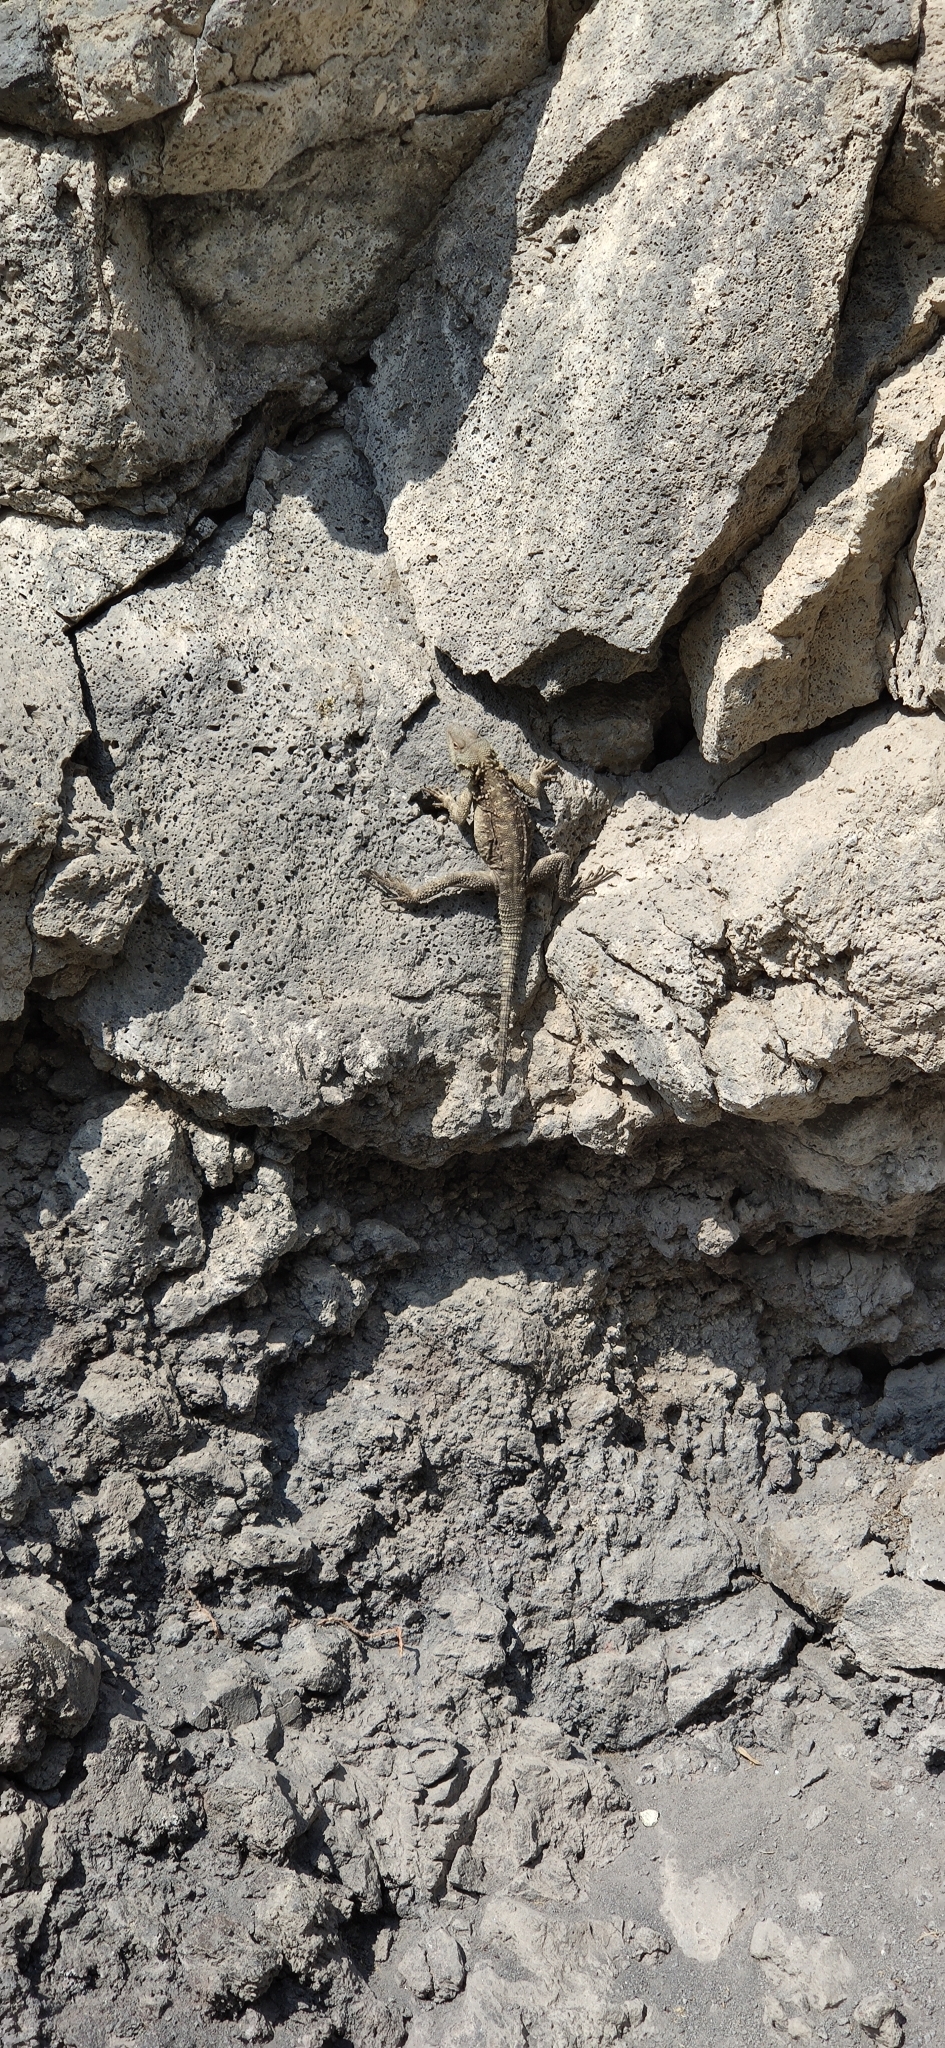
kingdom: Animalia
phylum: Chordata
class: Squamata
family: Agamidae
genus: Paralaudakia
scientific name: Paralaudakia caucasia
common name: Caucasian agama
